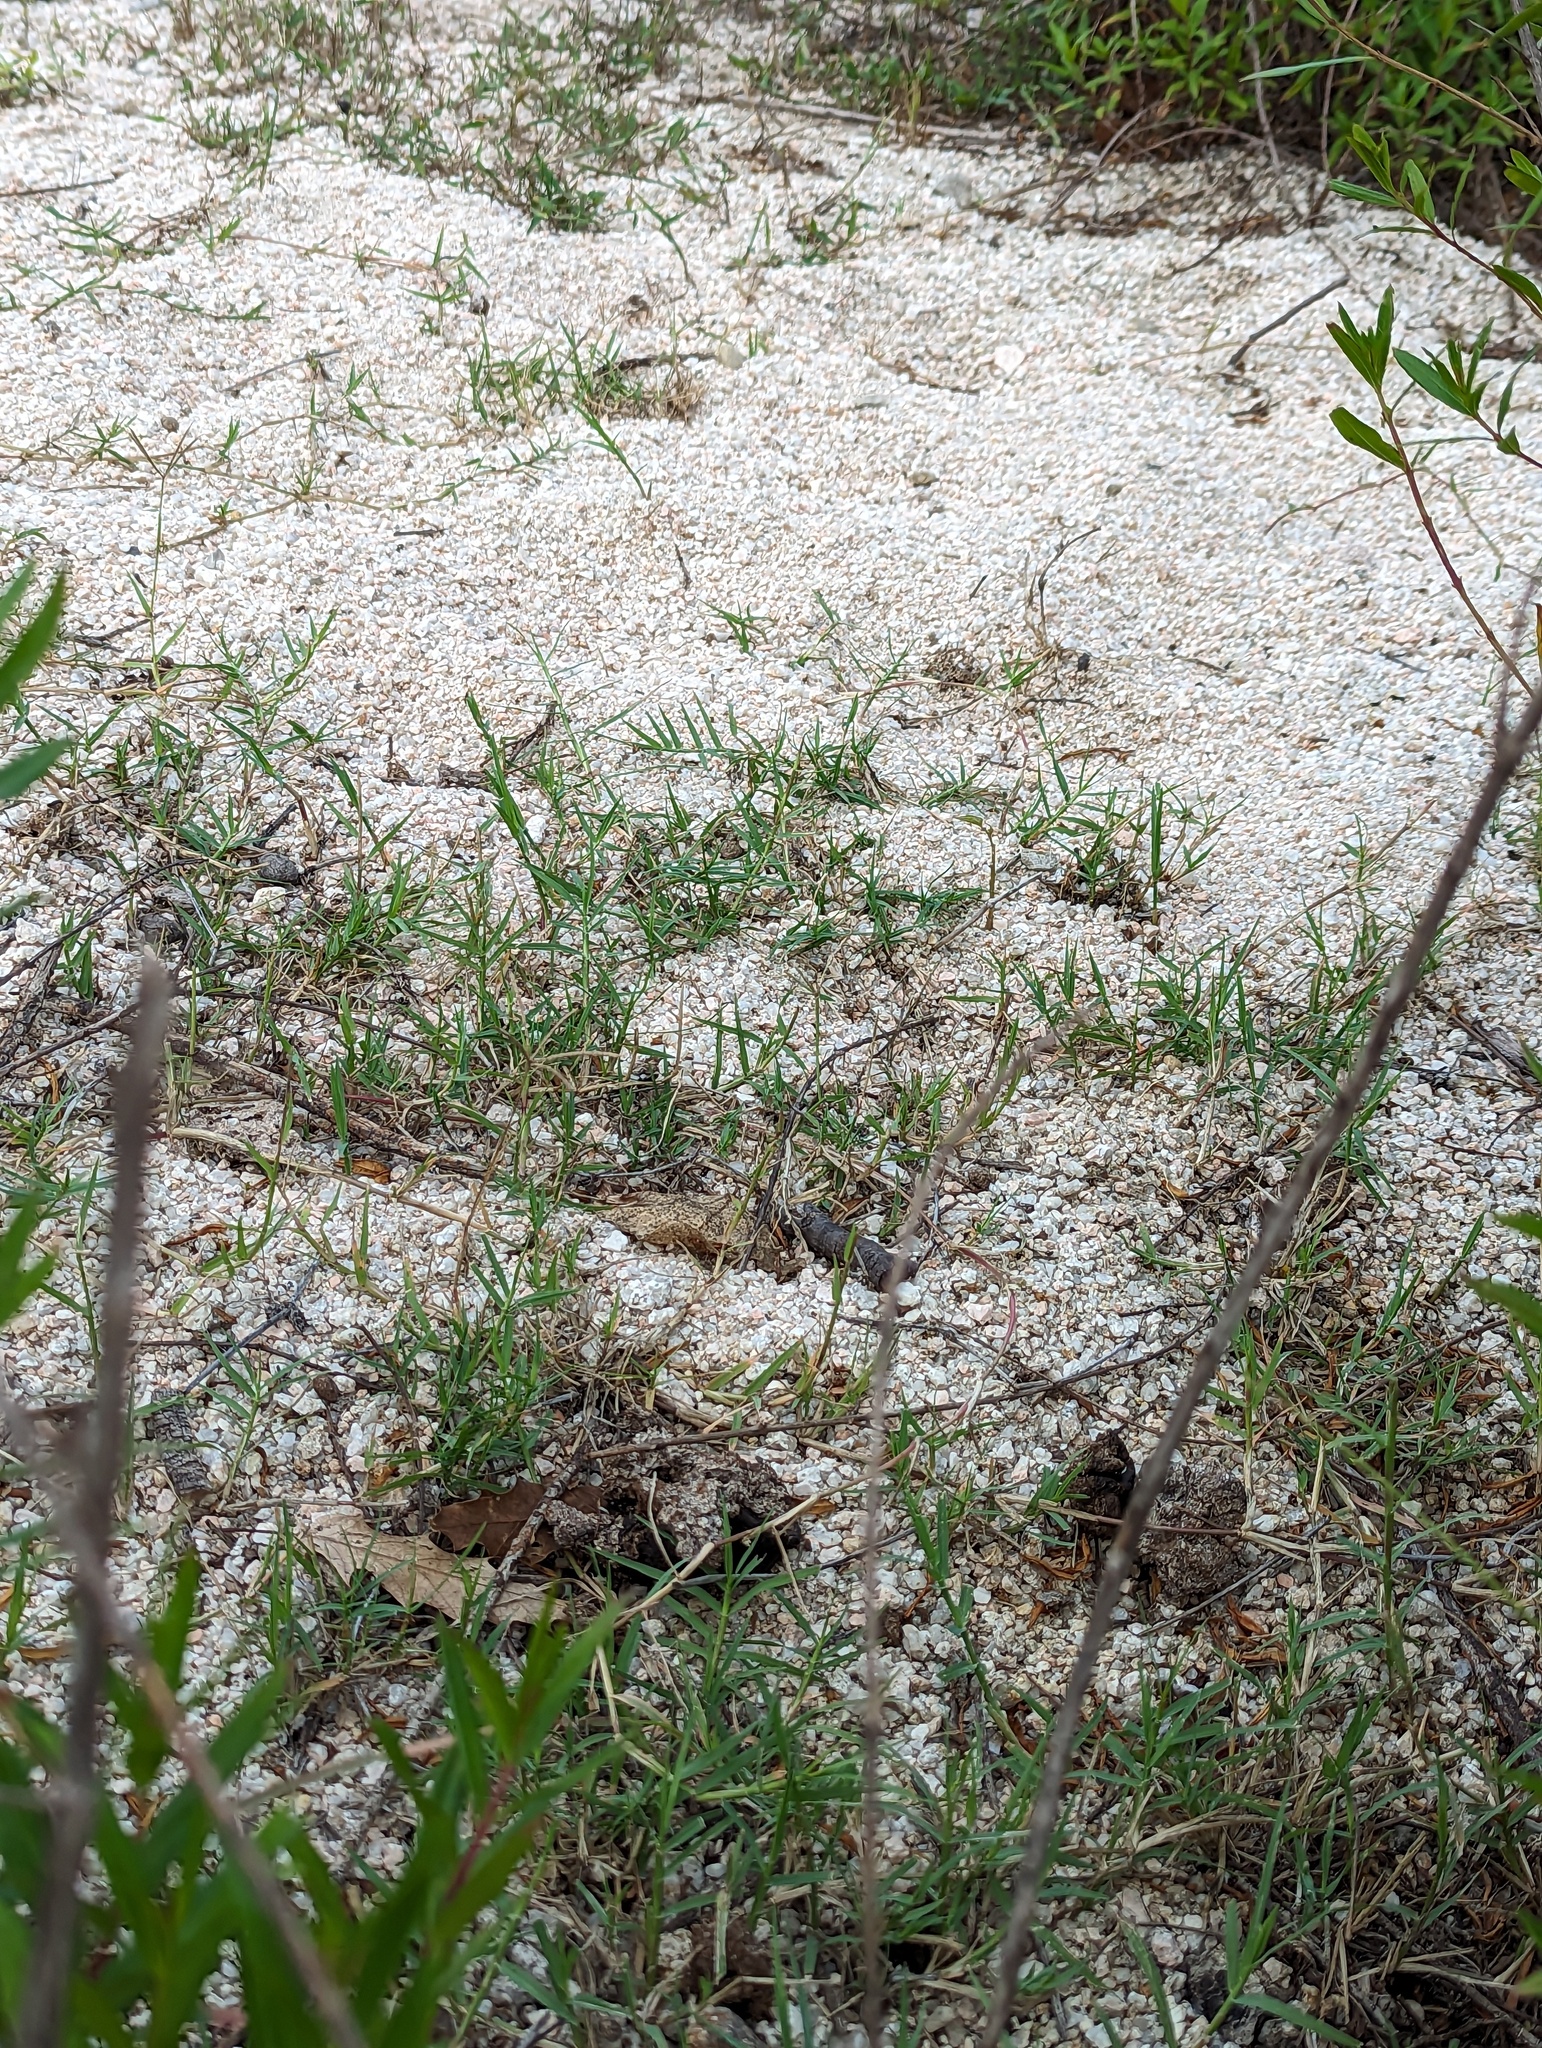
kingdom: Plantae
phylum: Tracheophyta
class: Liliopsida
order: Poales
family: Poaceae
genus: Cynodon
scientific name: Cynodon dactylon
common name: Bermuda grass
